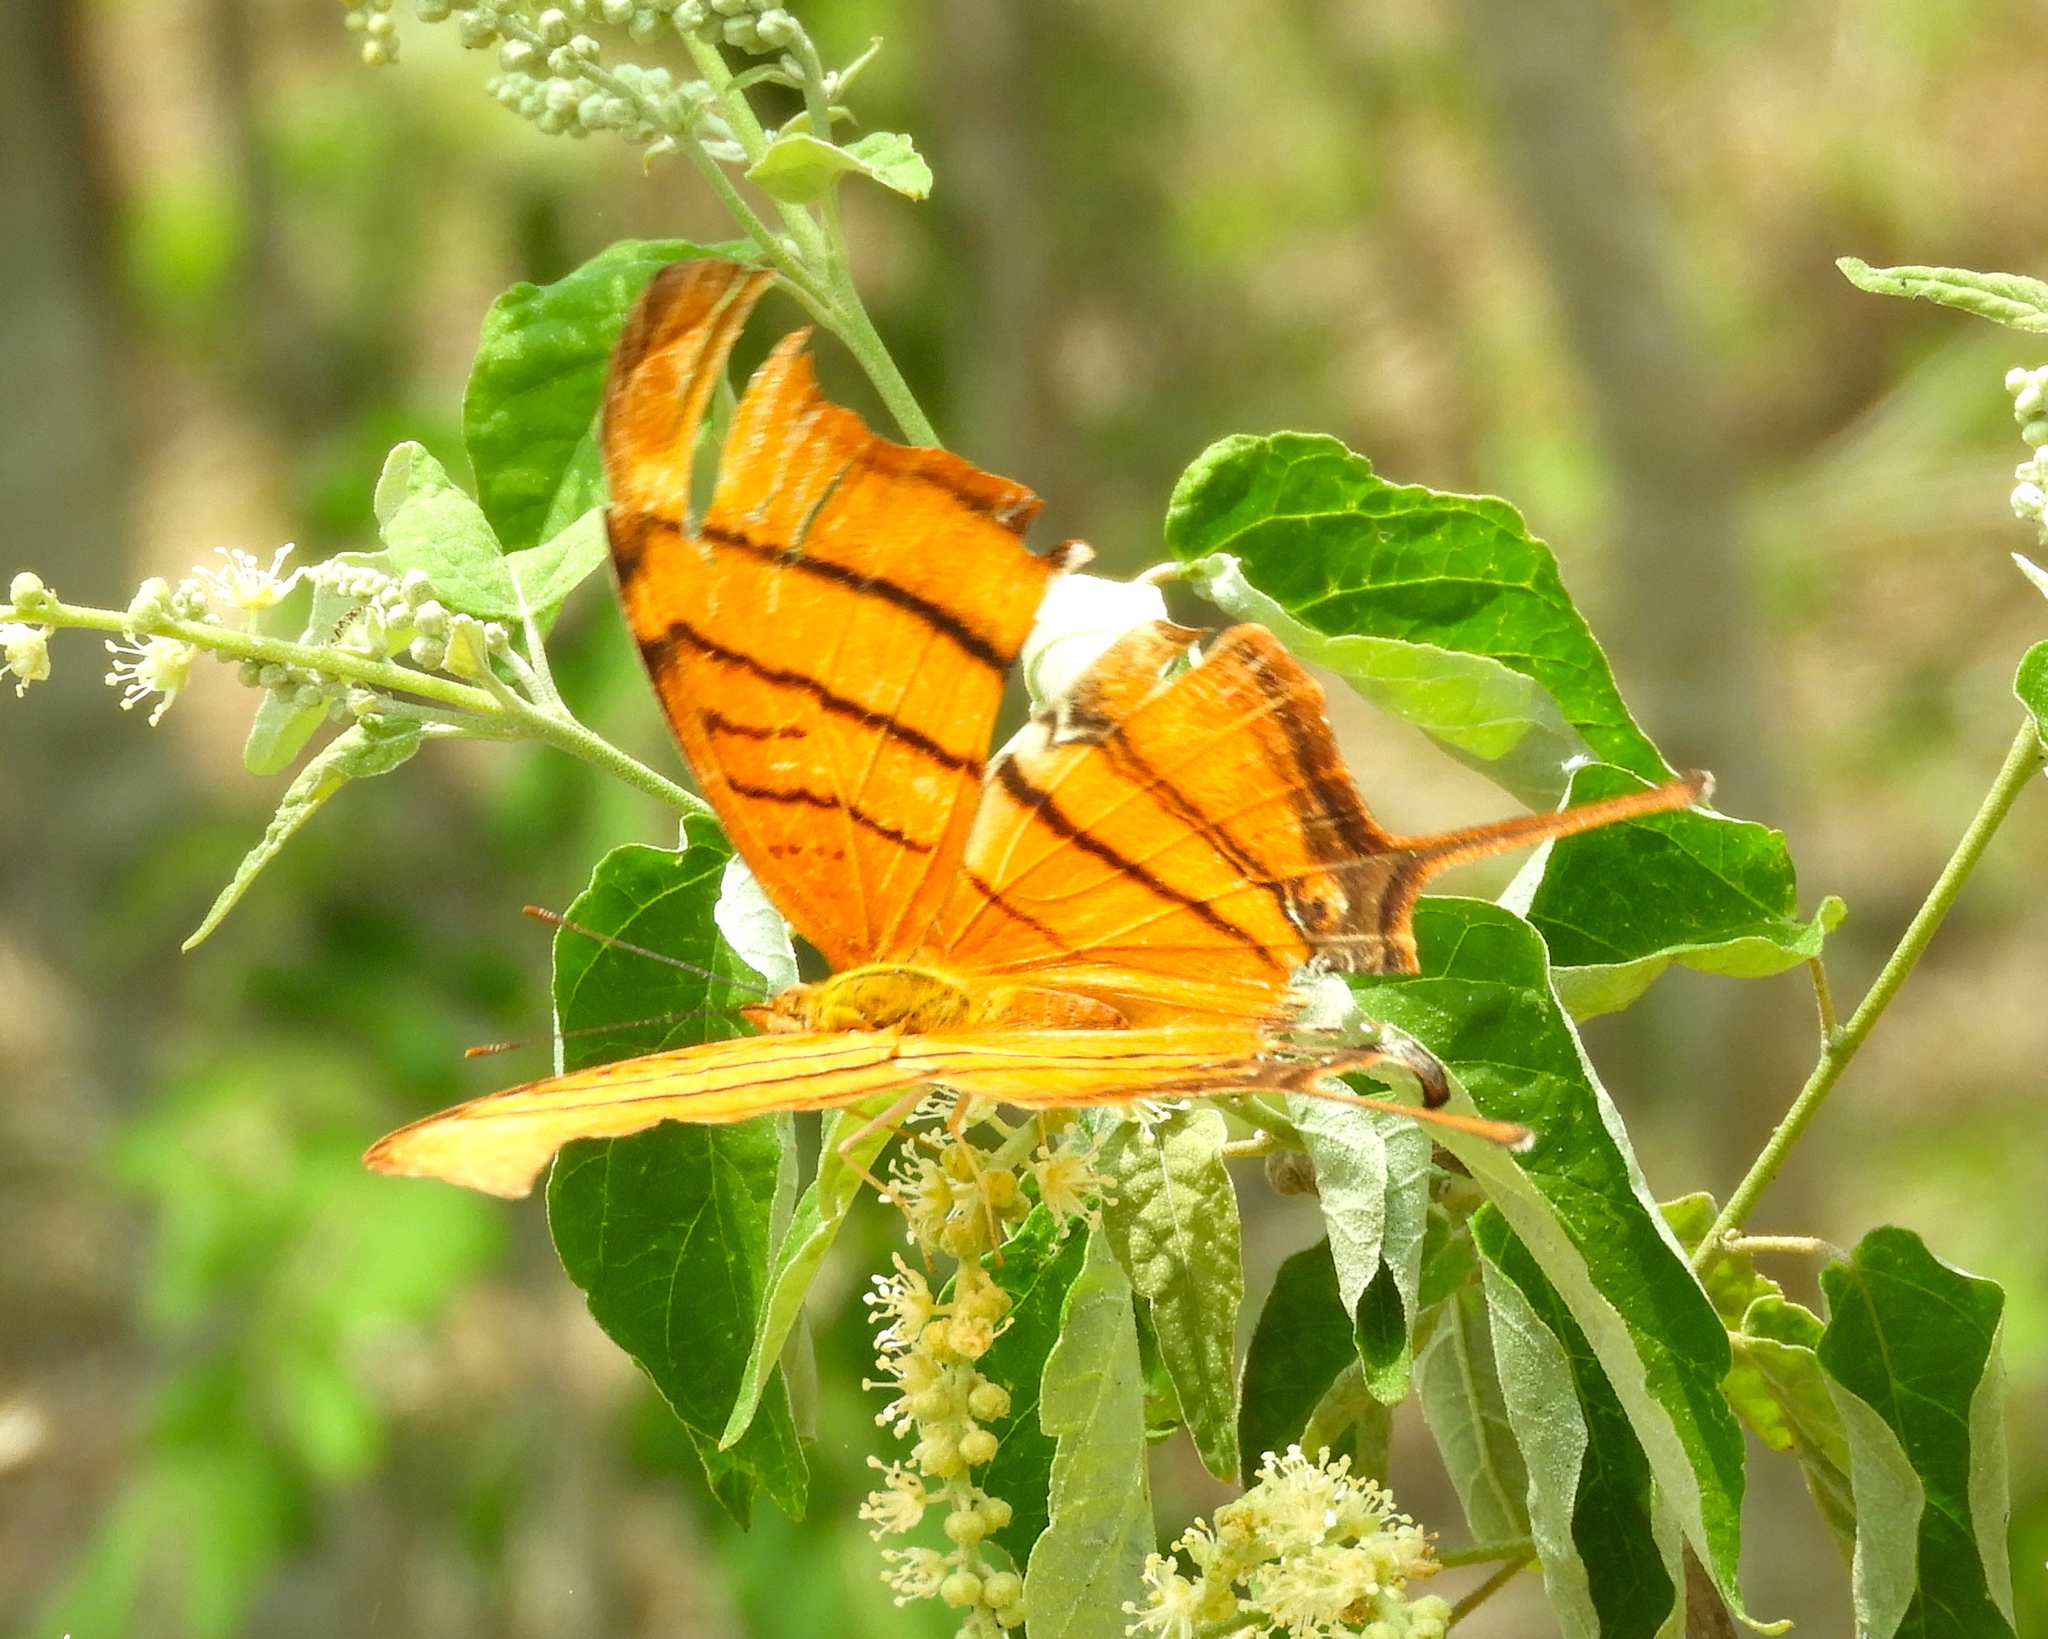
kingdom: Animalia
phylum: Arthropoda
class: Insecta
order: Lepidoptera
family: Nymphalidae
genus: Marpesia
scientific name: Marpesia petreus
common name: Red dagger wing
